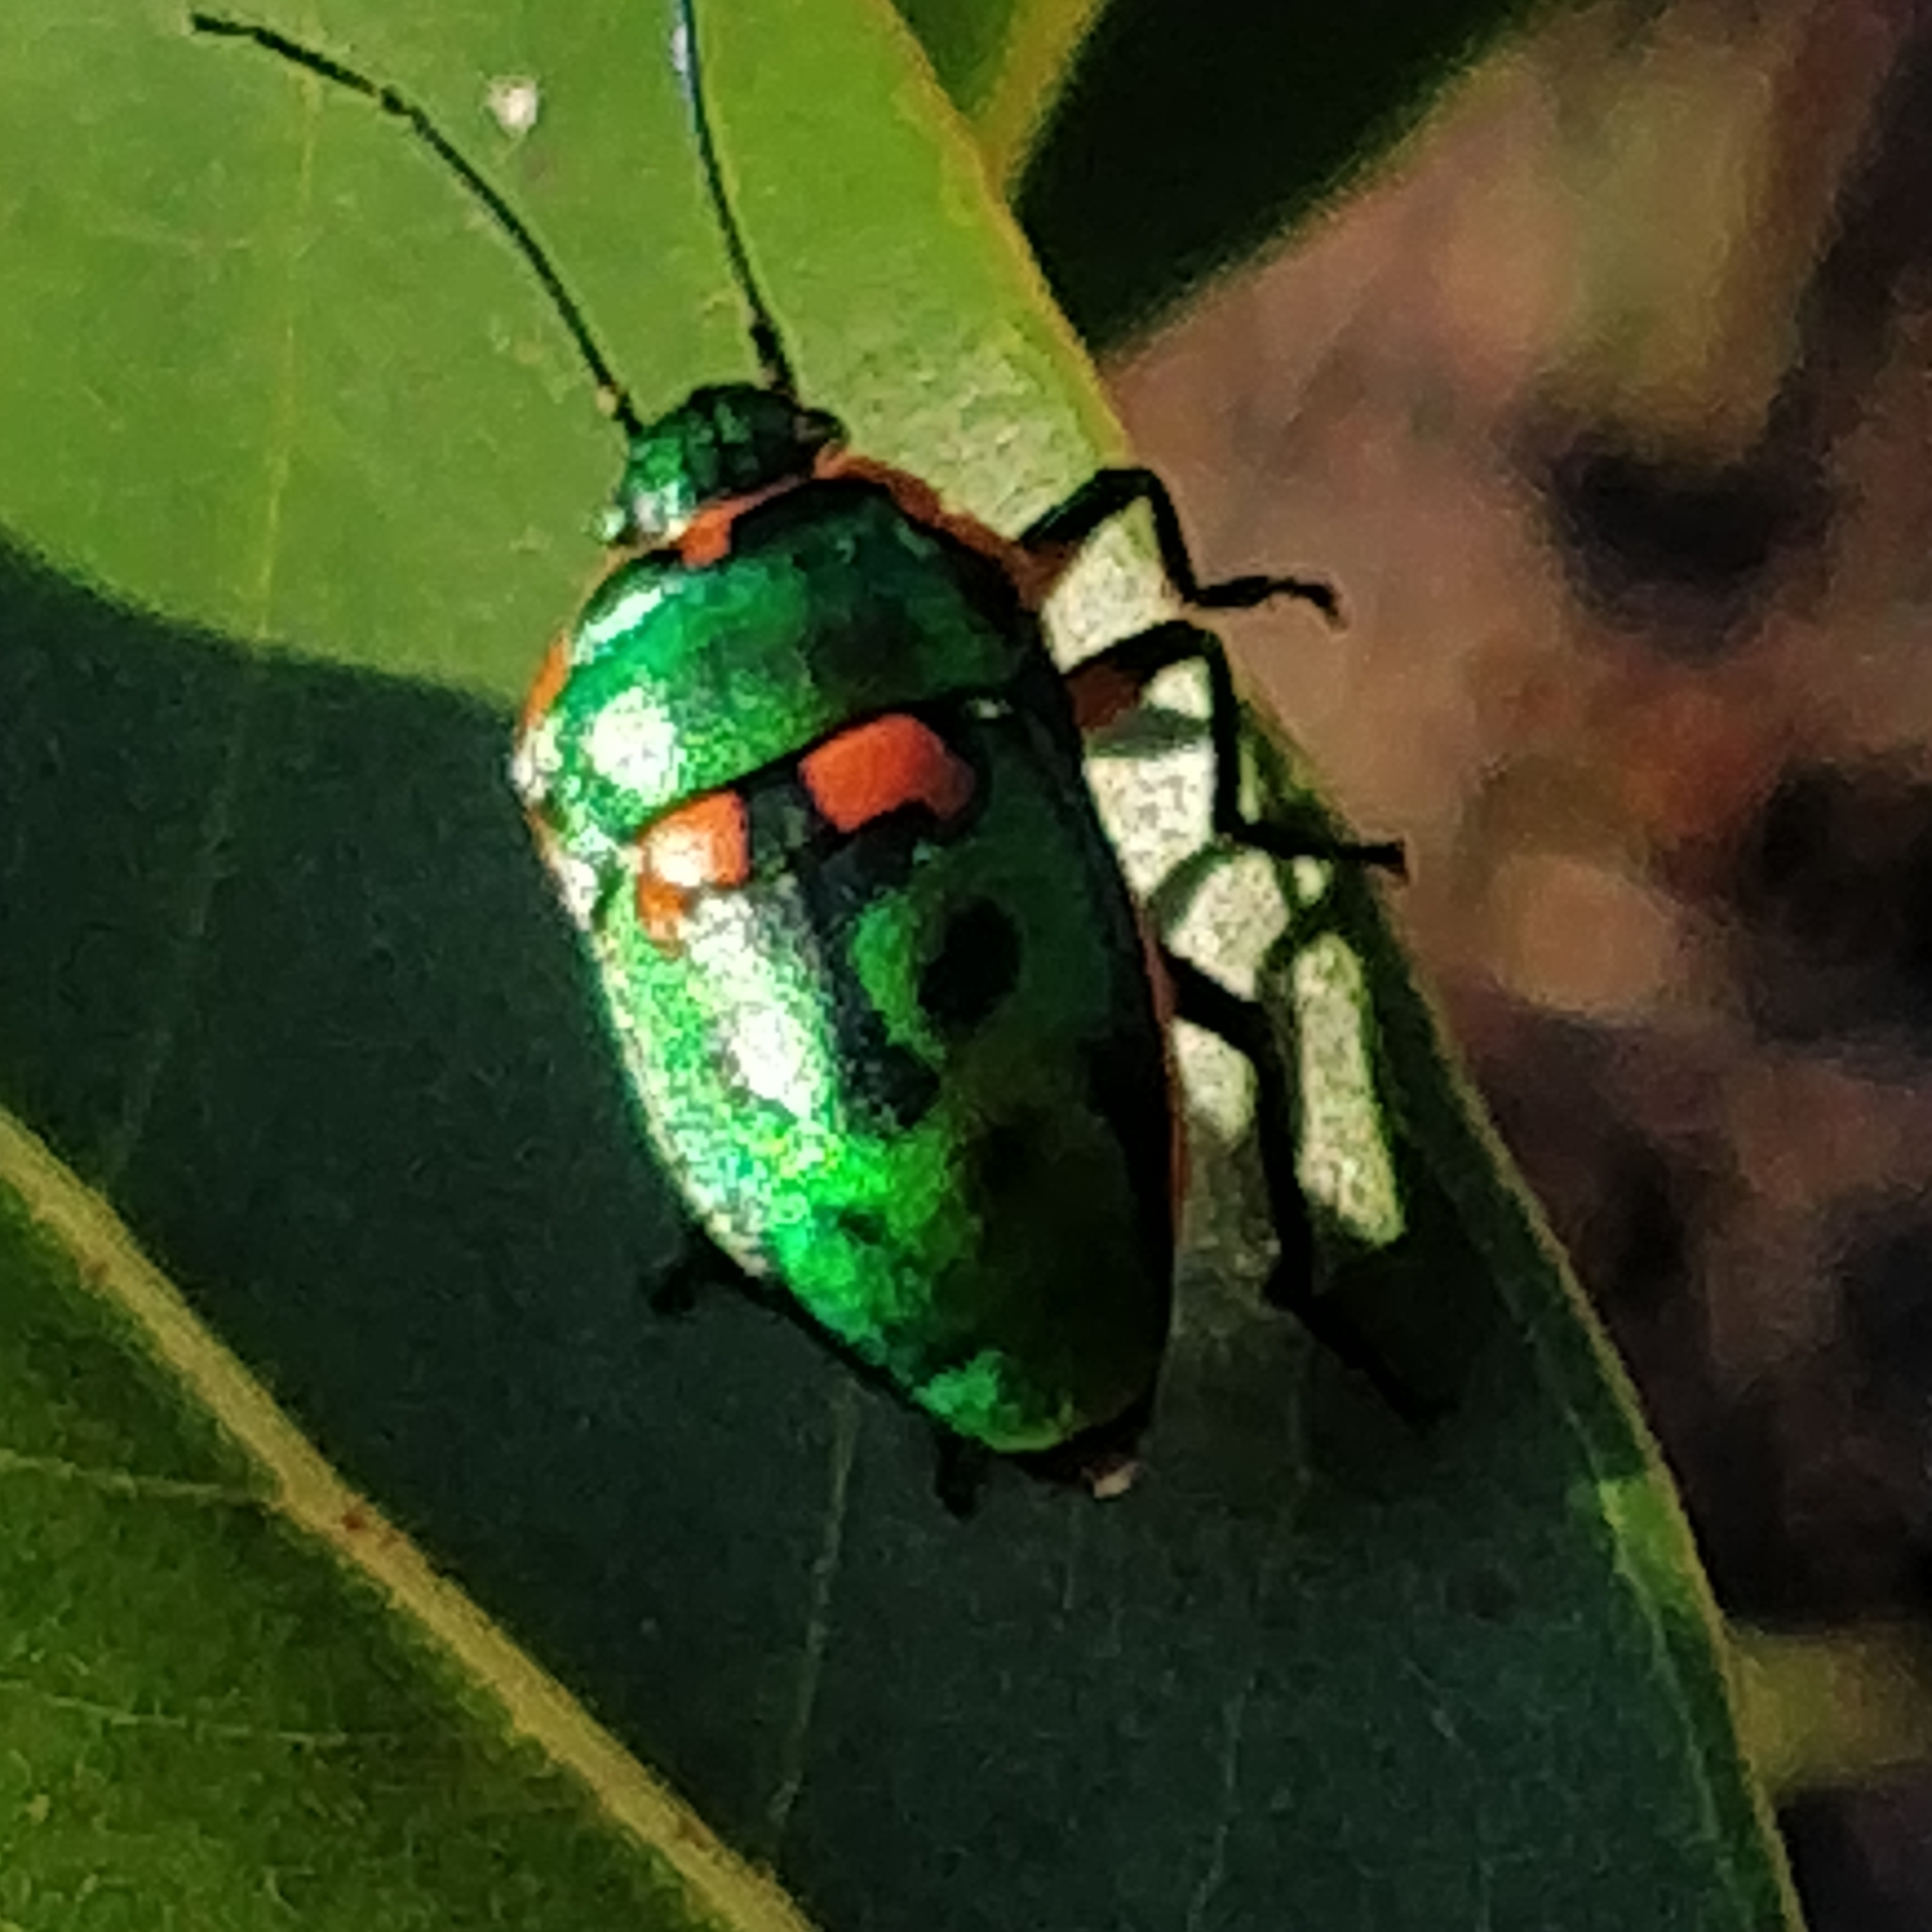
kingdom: Animalia
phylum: Arthropoda
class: Insecta
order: Hemiptera
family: Scutelleridae
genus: Scutiphora
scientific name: Scutiphora pedicellata
